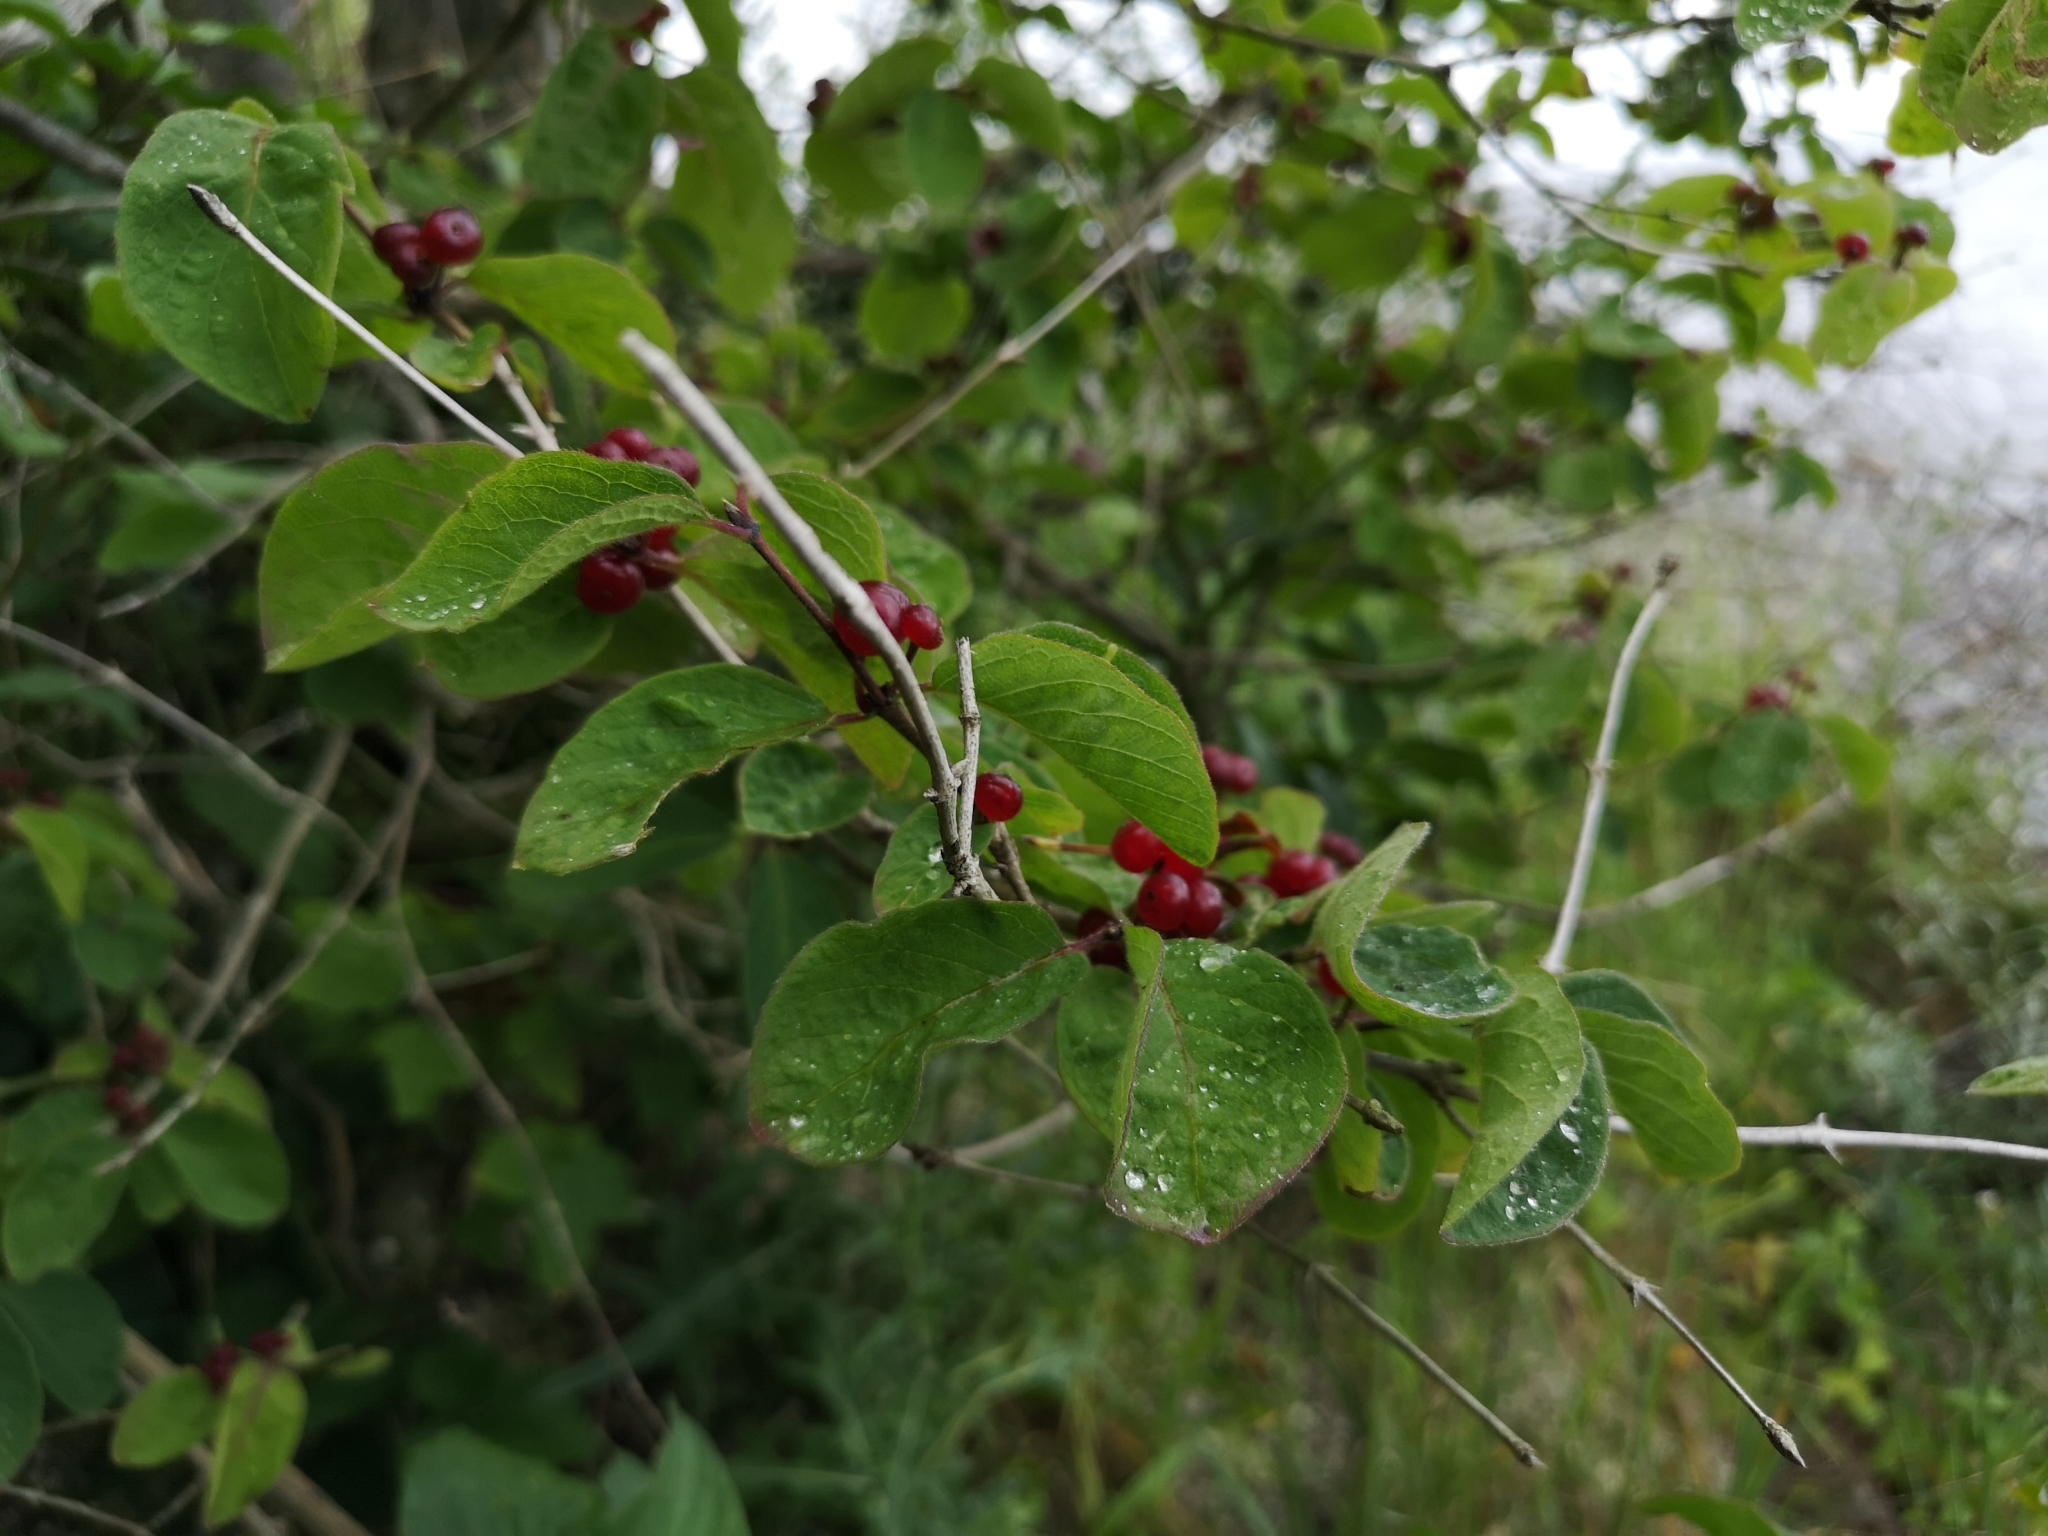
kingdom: Plantae
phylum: Tracheophyta
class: Magnoliopsida
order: Dipsacales
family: Caprifoliaceae
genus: Lonicera
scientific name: Lonicera xylosteum
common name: Fly honeysuckle
